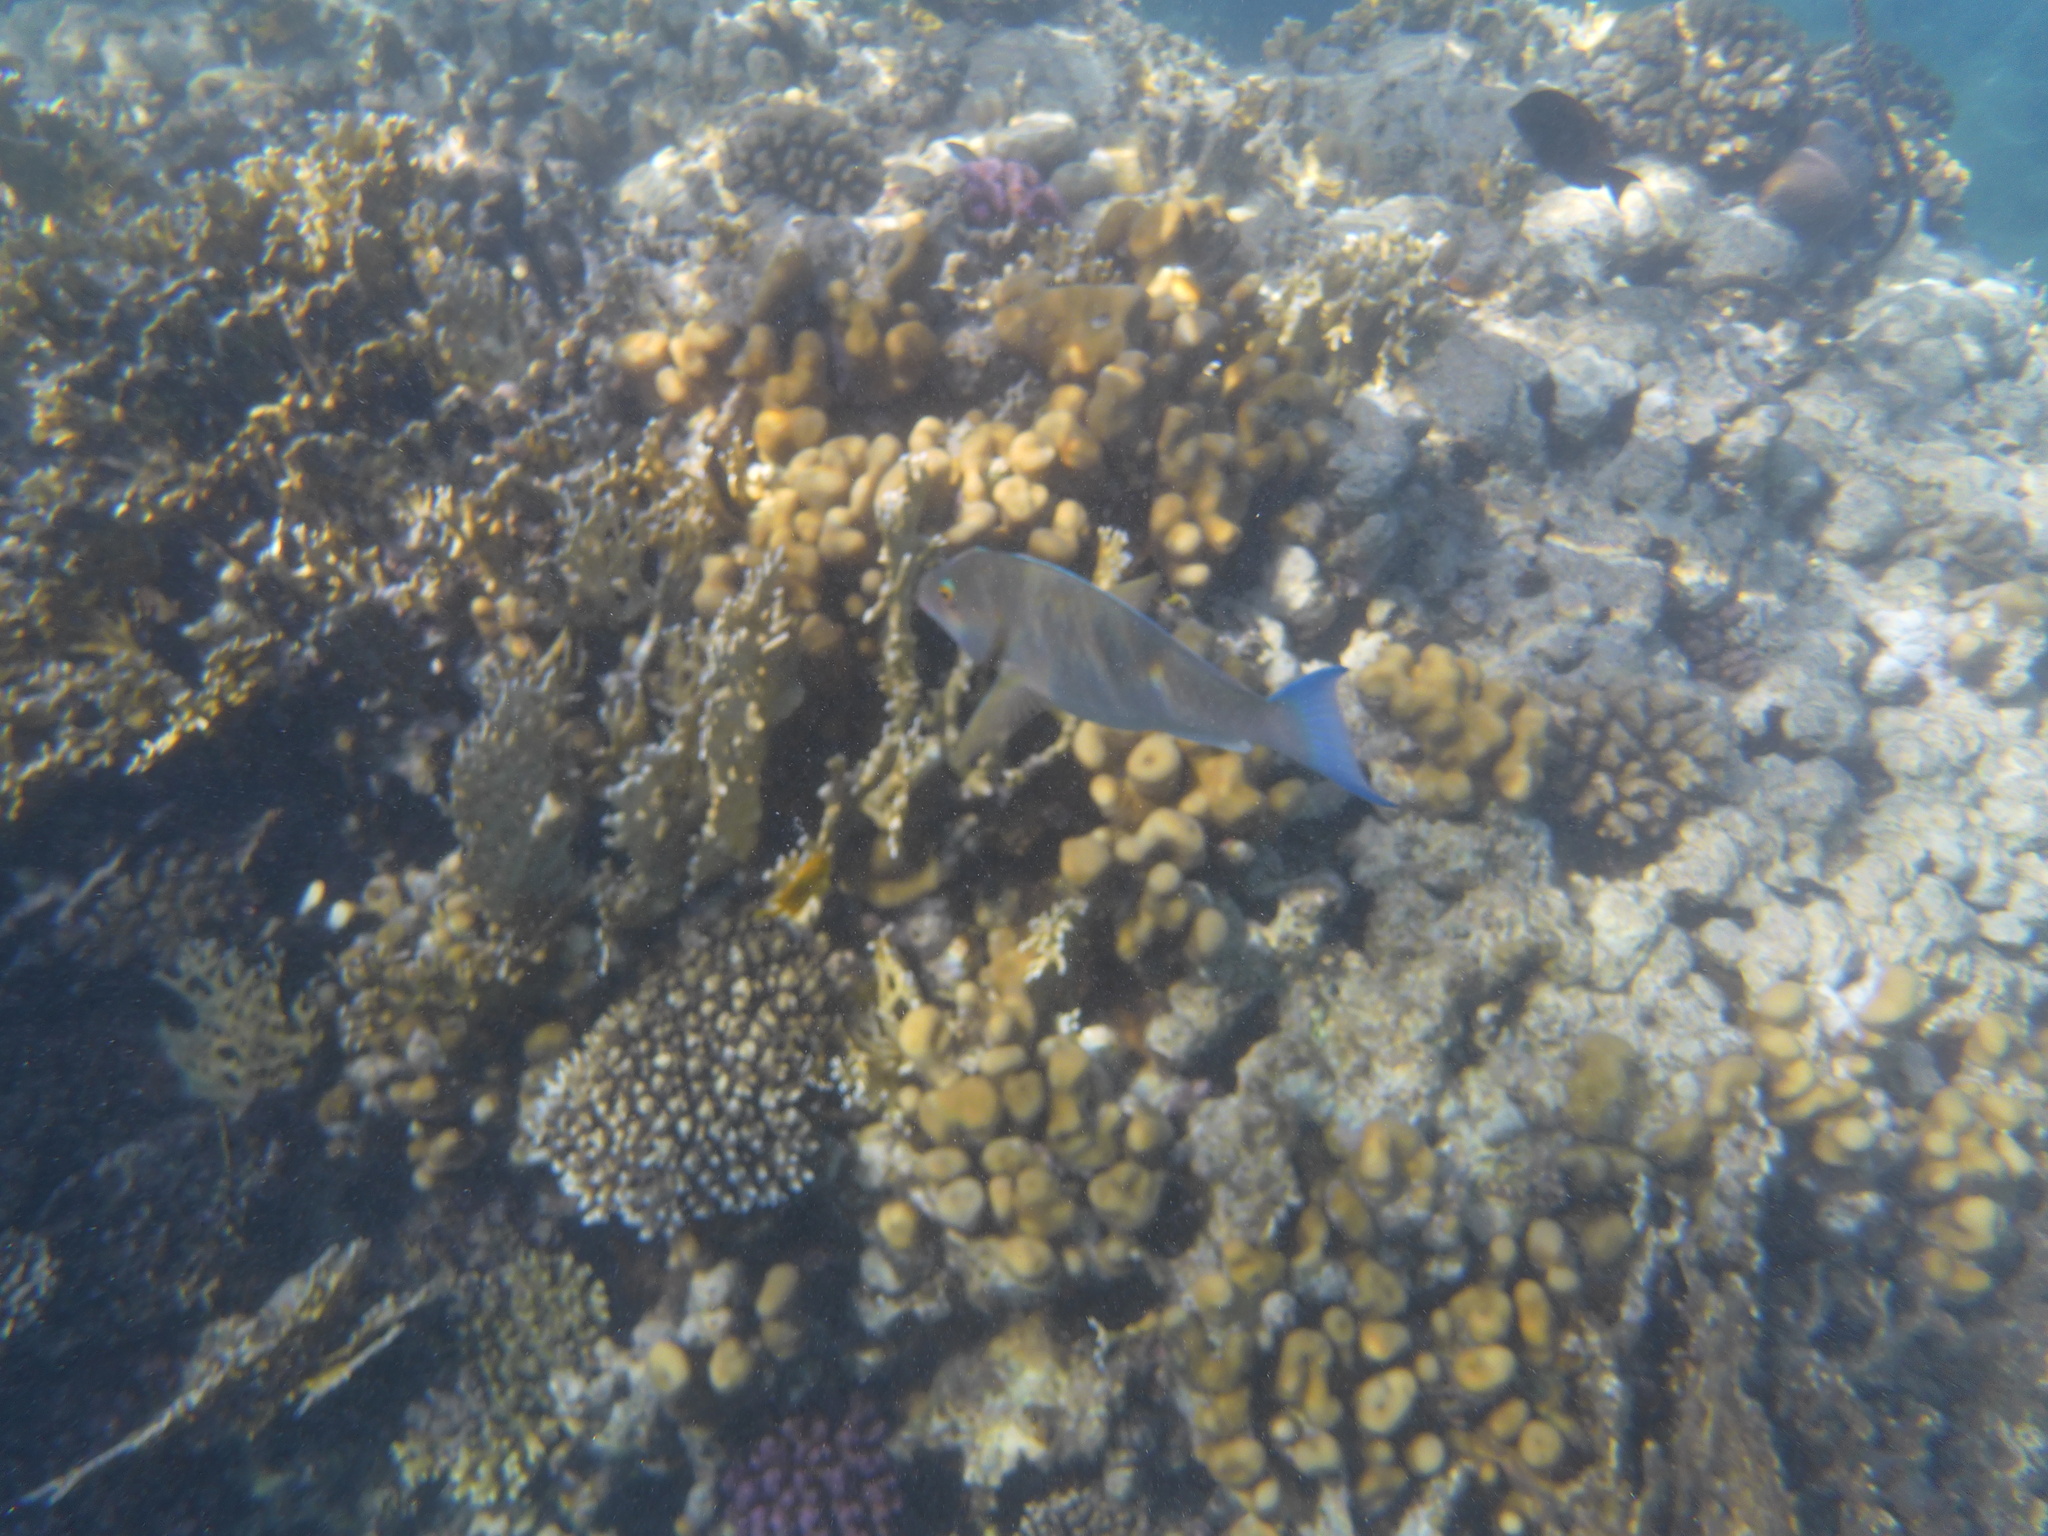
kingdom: Animalia
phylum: Chordata
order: Perciformes
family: Scaridae
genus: Hipposcarus
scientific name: Hipposcarus harid
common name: Candelamoa parrotfish
